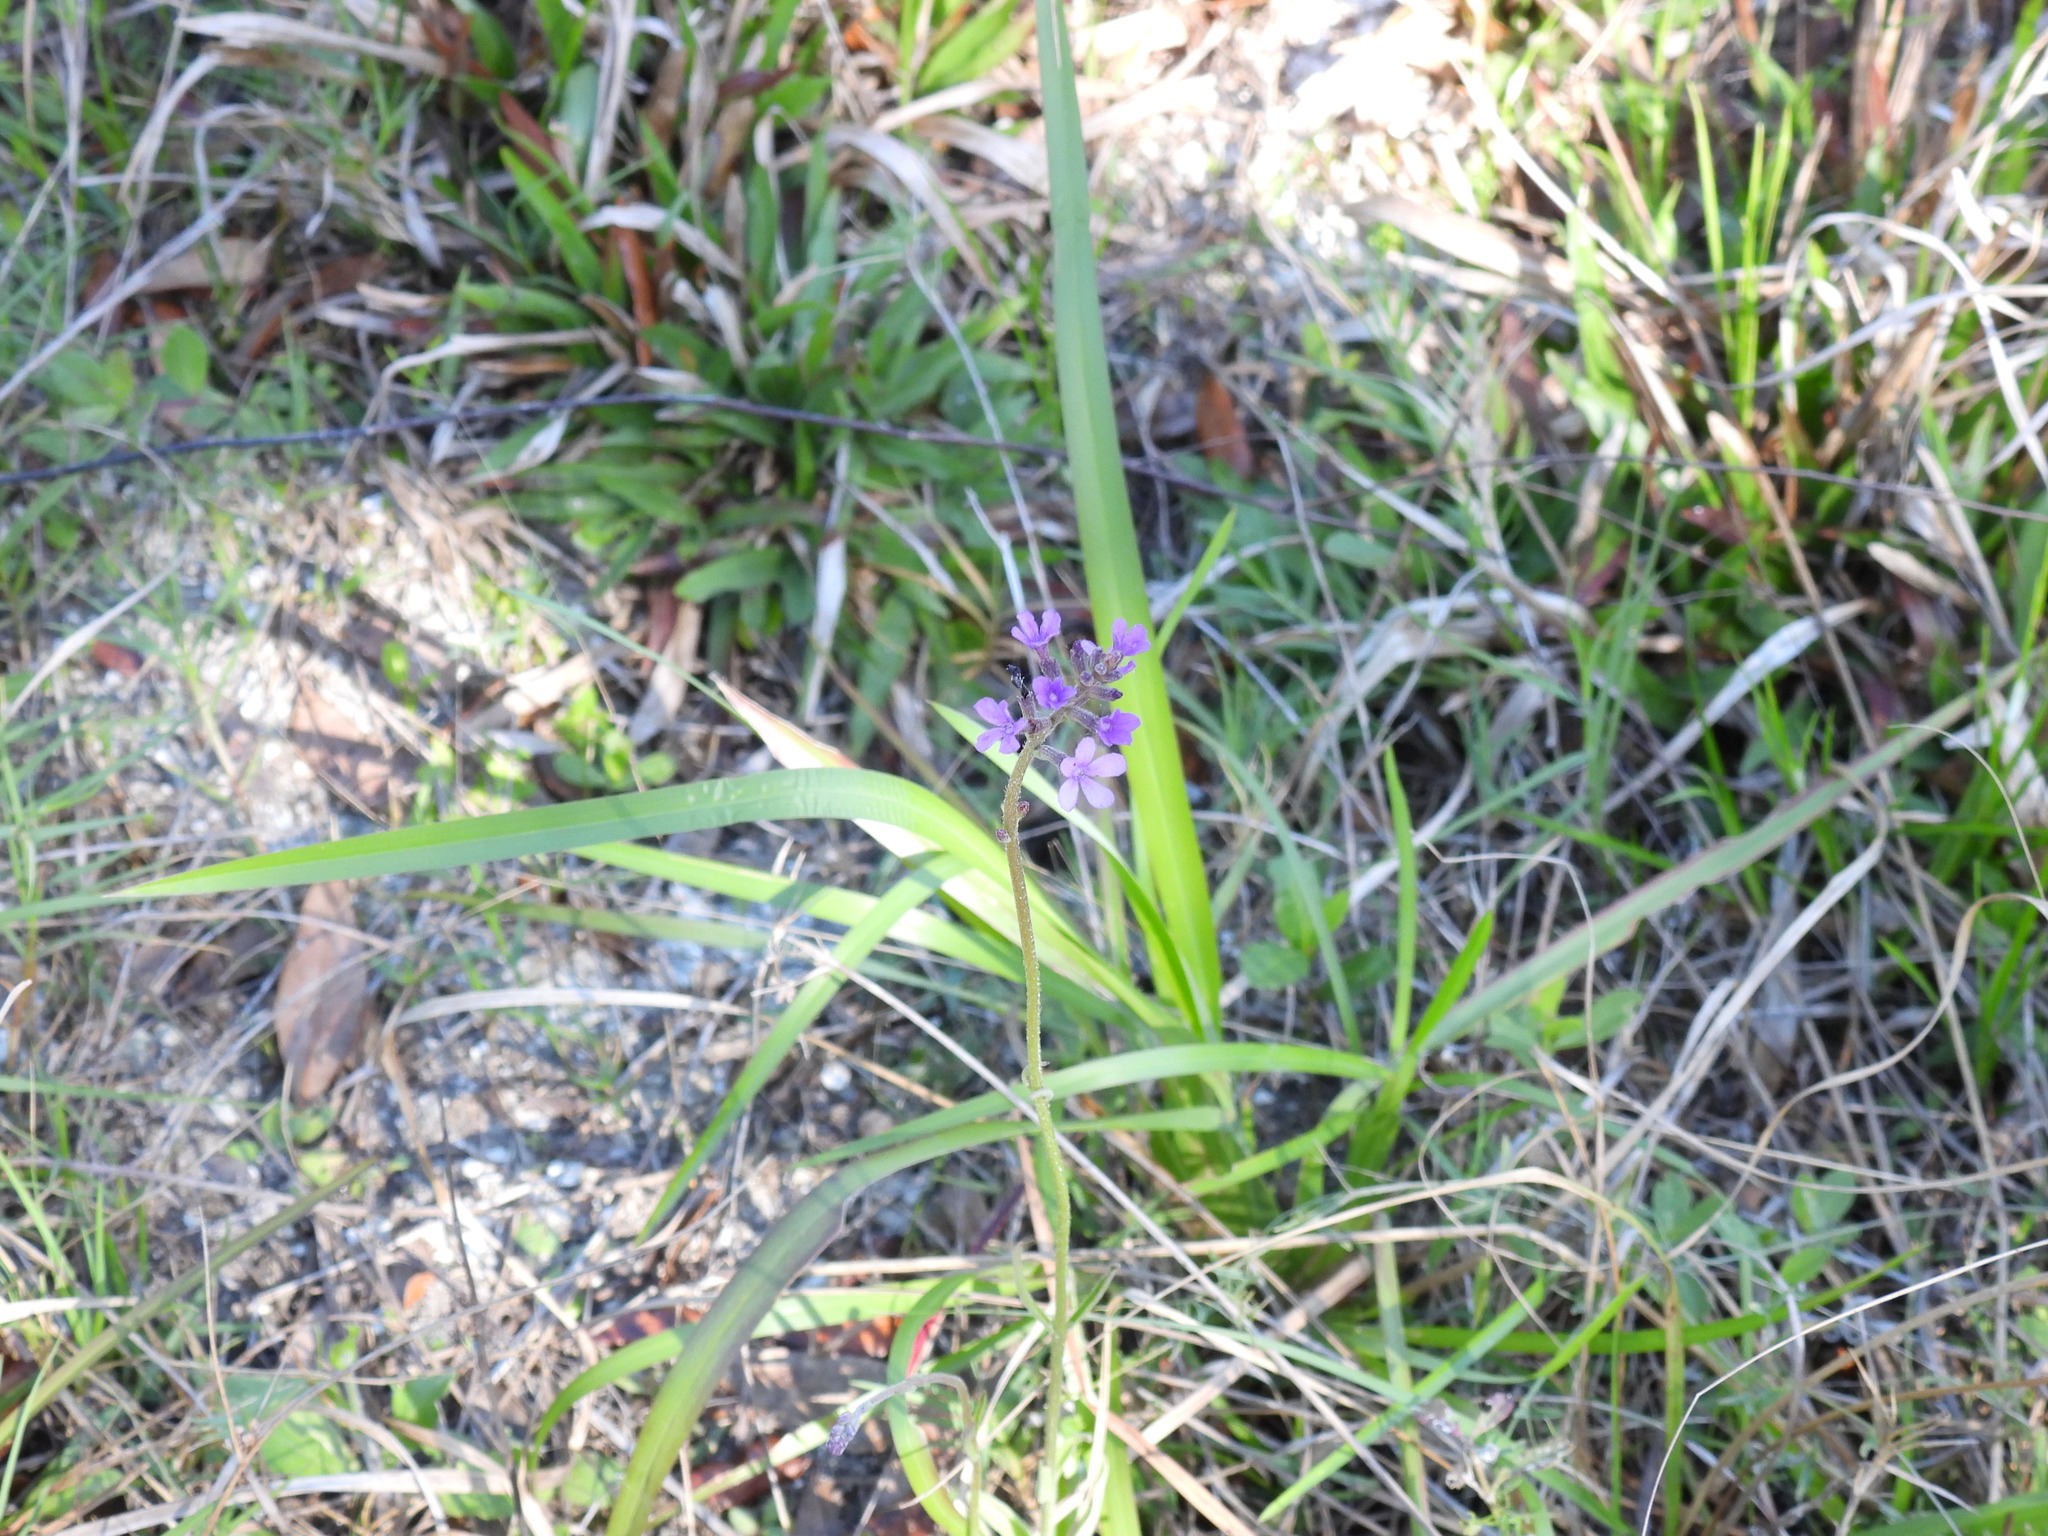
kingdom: Plantae
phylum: Tracheophyta
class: Magnoliopsida
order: Lamiales
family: Orobanchaceae
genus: Buchnera
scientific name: Buchnera floridana
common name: Florida bluehearts
